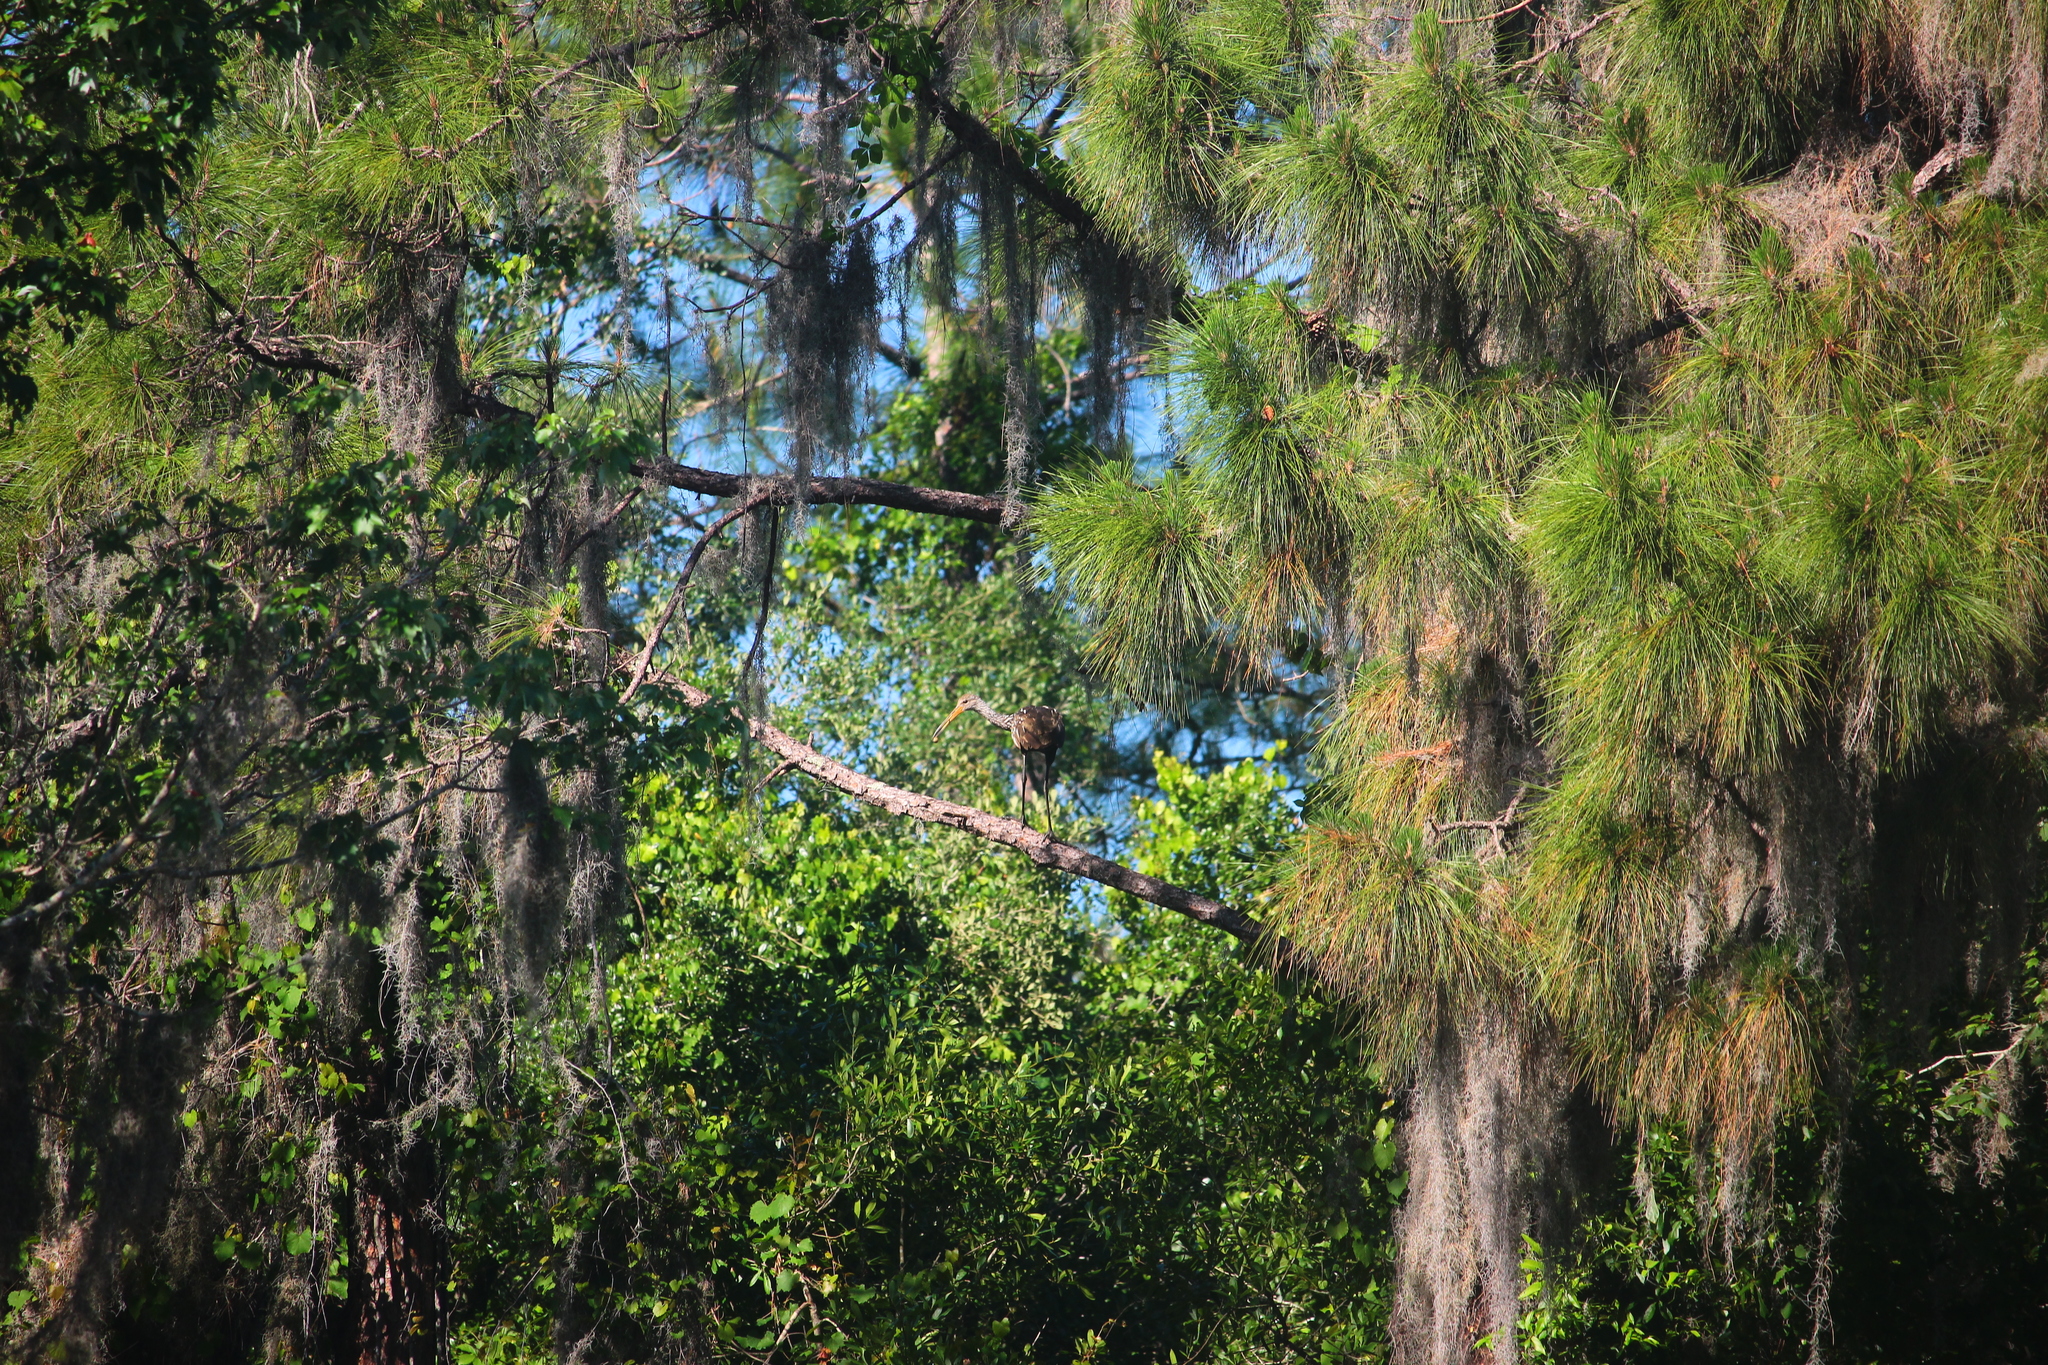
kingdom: Animalia
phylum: Chordata
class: Aves
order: Gruiformes
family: Aramidae
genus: Aramus
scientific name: Aramus guarauna
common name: Limpkin
